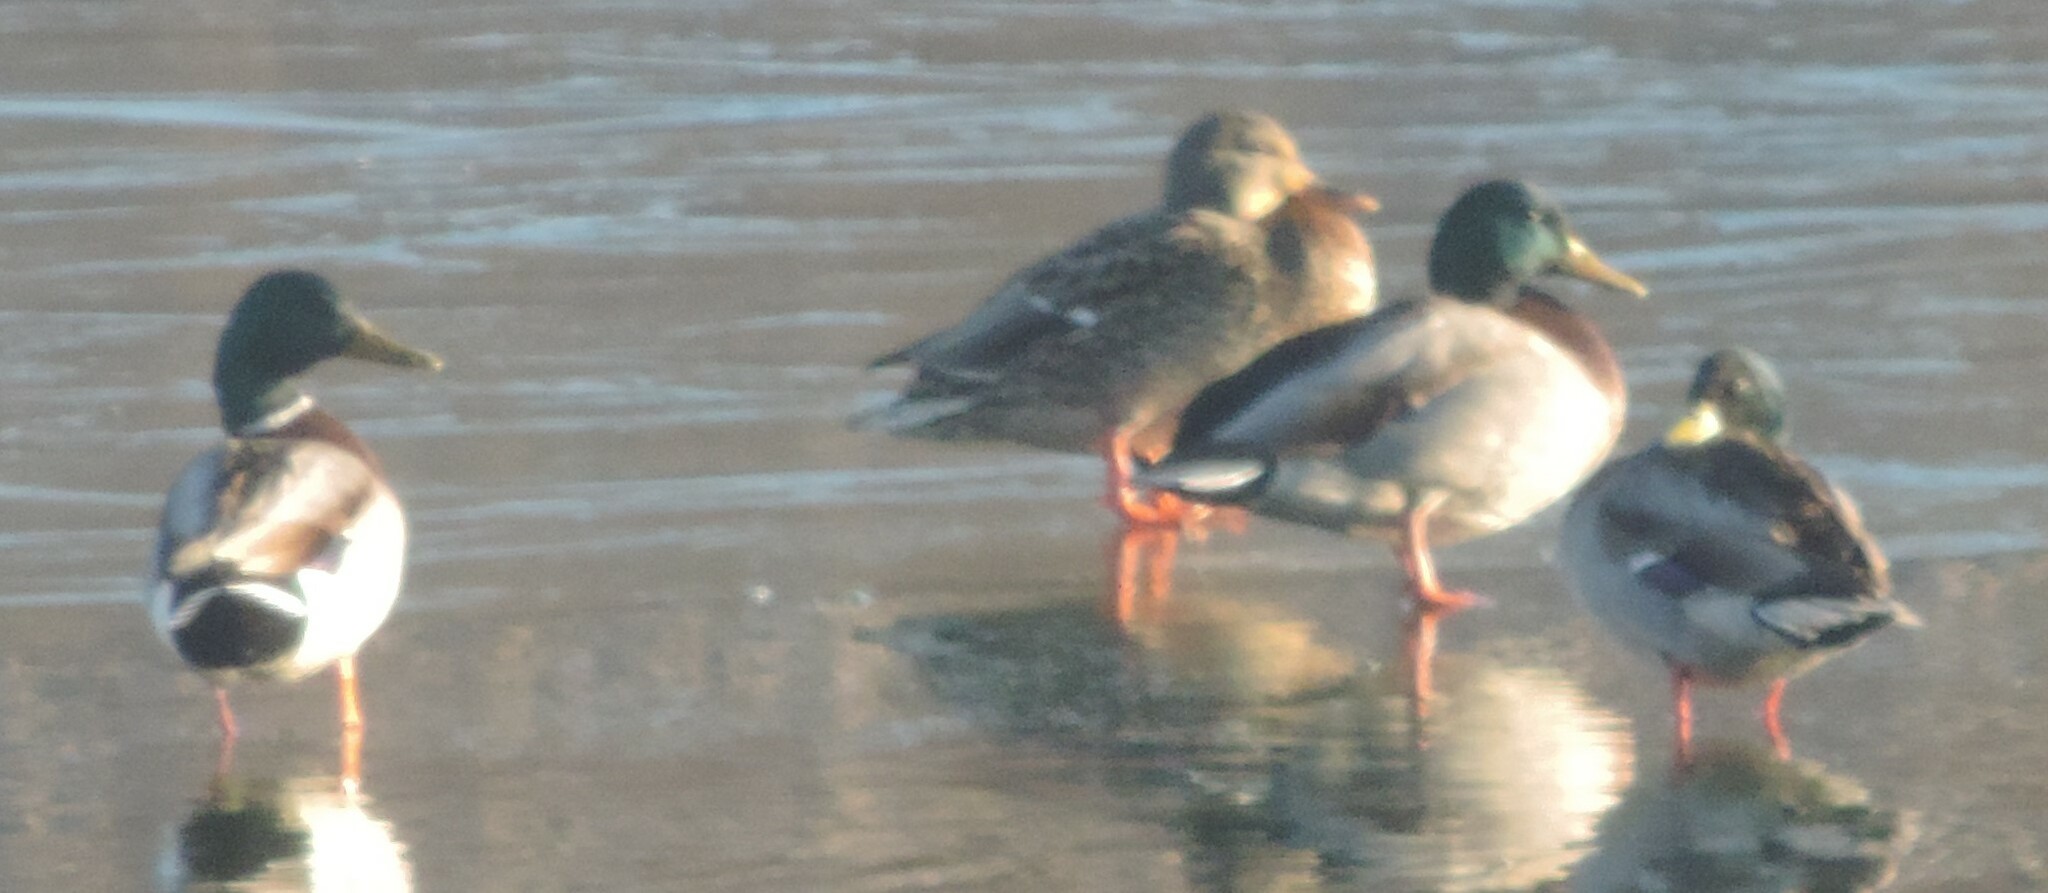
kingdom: Animalia
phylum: Chordata
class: Aves
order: Anseriformes
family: Anatidae
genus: Anas
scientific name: Anas platyrhynchos
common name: Mallard
